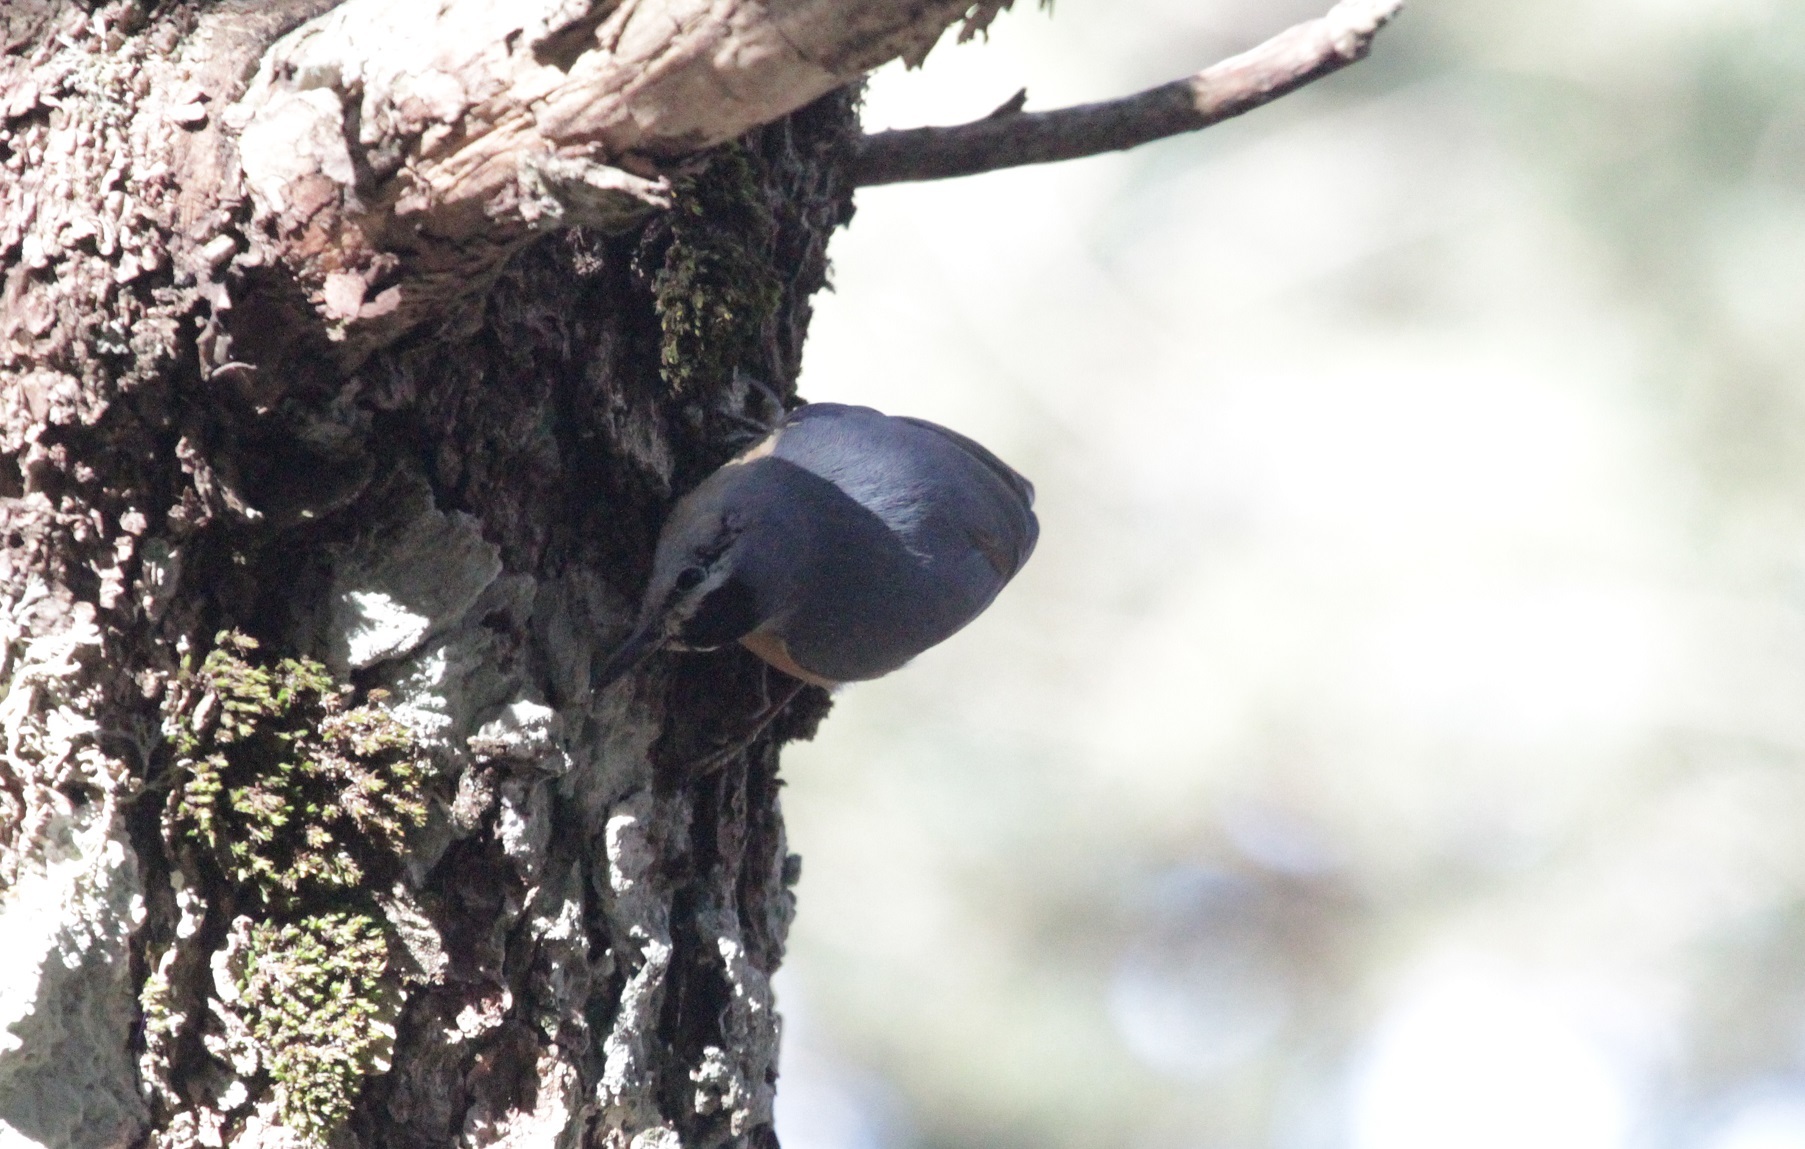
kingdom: Animalia
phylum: Chordata
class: Aves
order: Passeriformes
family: Sittidae
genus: Sitta
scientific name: Sitta ledanti
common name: Algerian nuthatch
